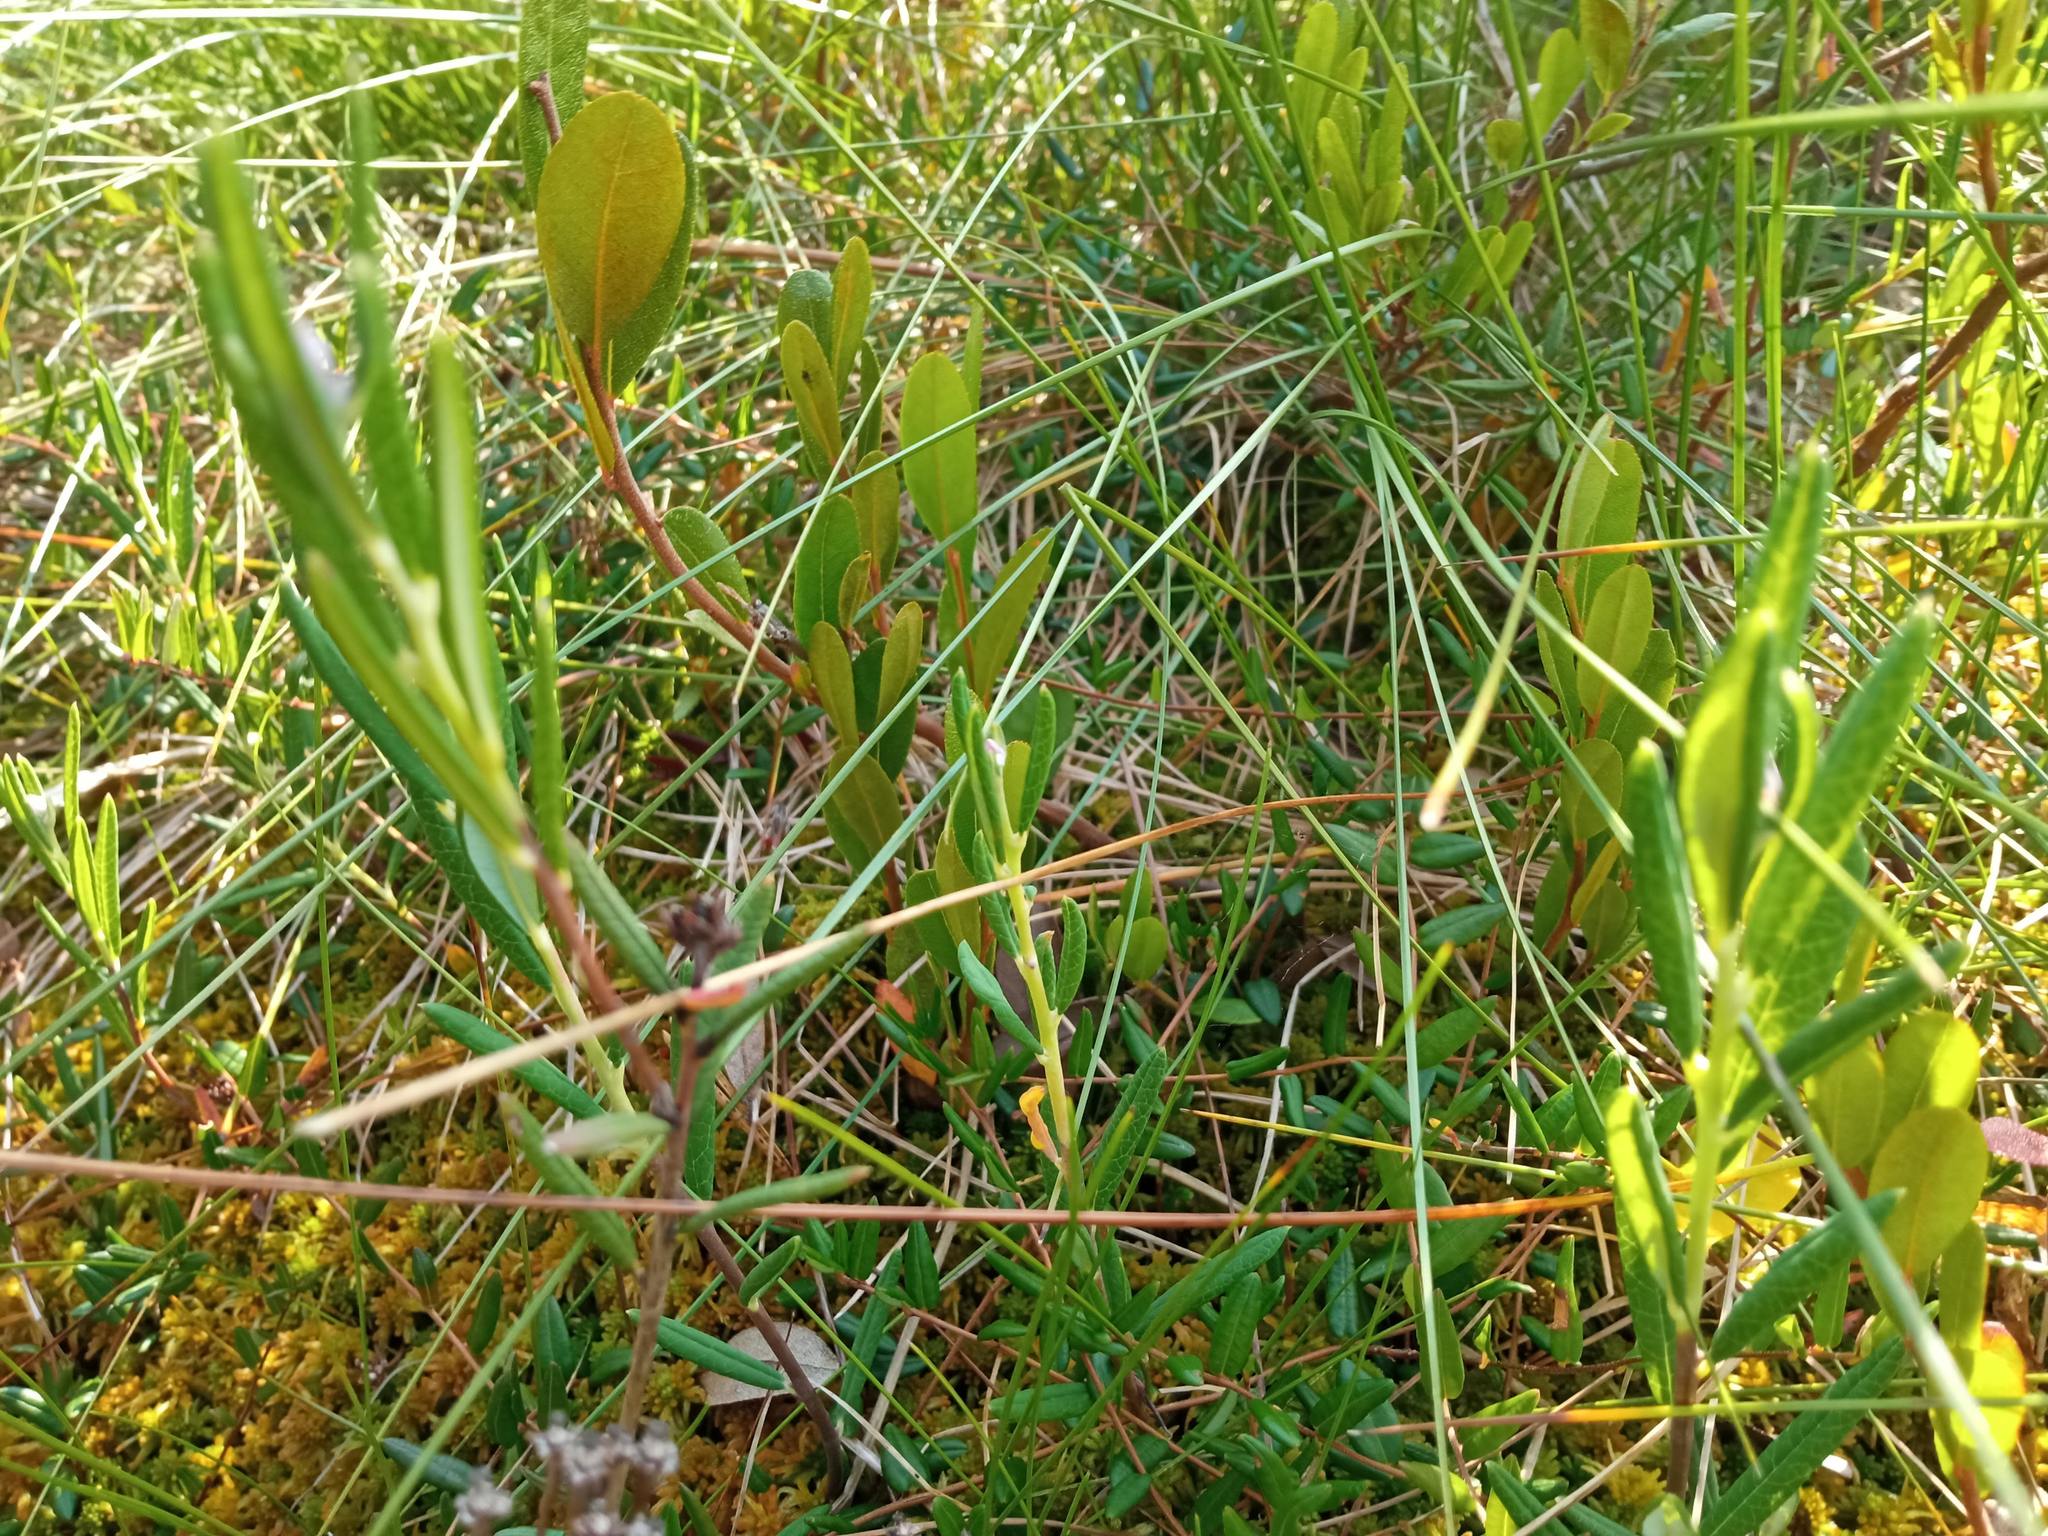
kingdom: Plantae
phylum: Tracheophyta
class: Magnoliopsida
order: Ericales
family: Ericaceae
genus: Andromeda
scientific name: Andromeda polifolia
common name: Bog-rosemary
